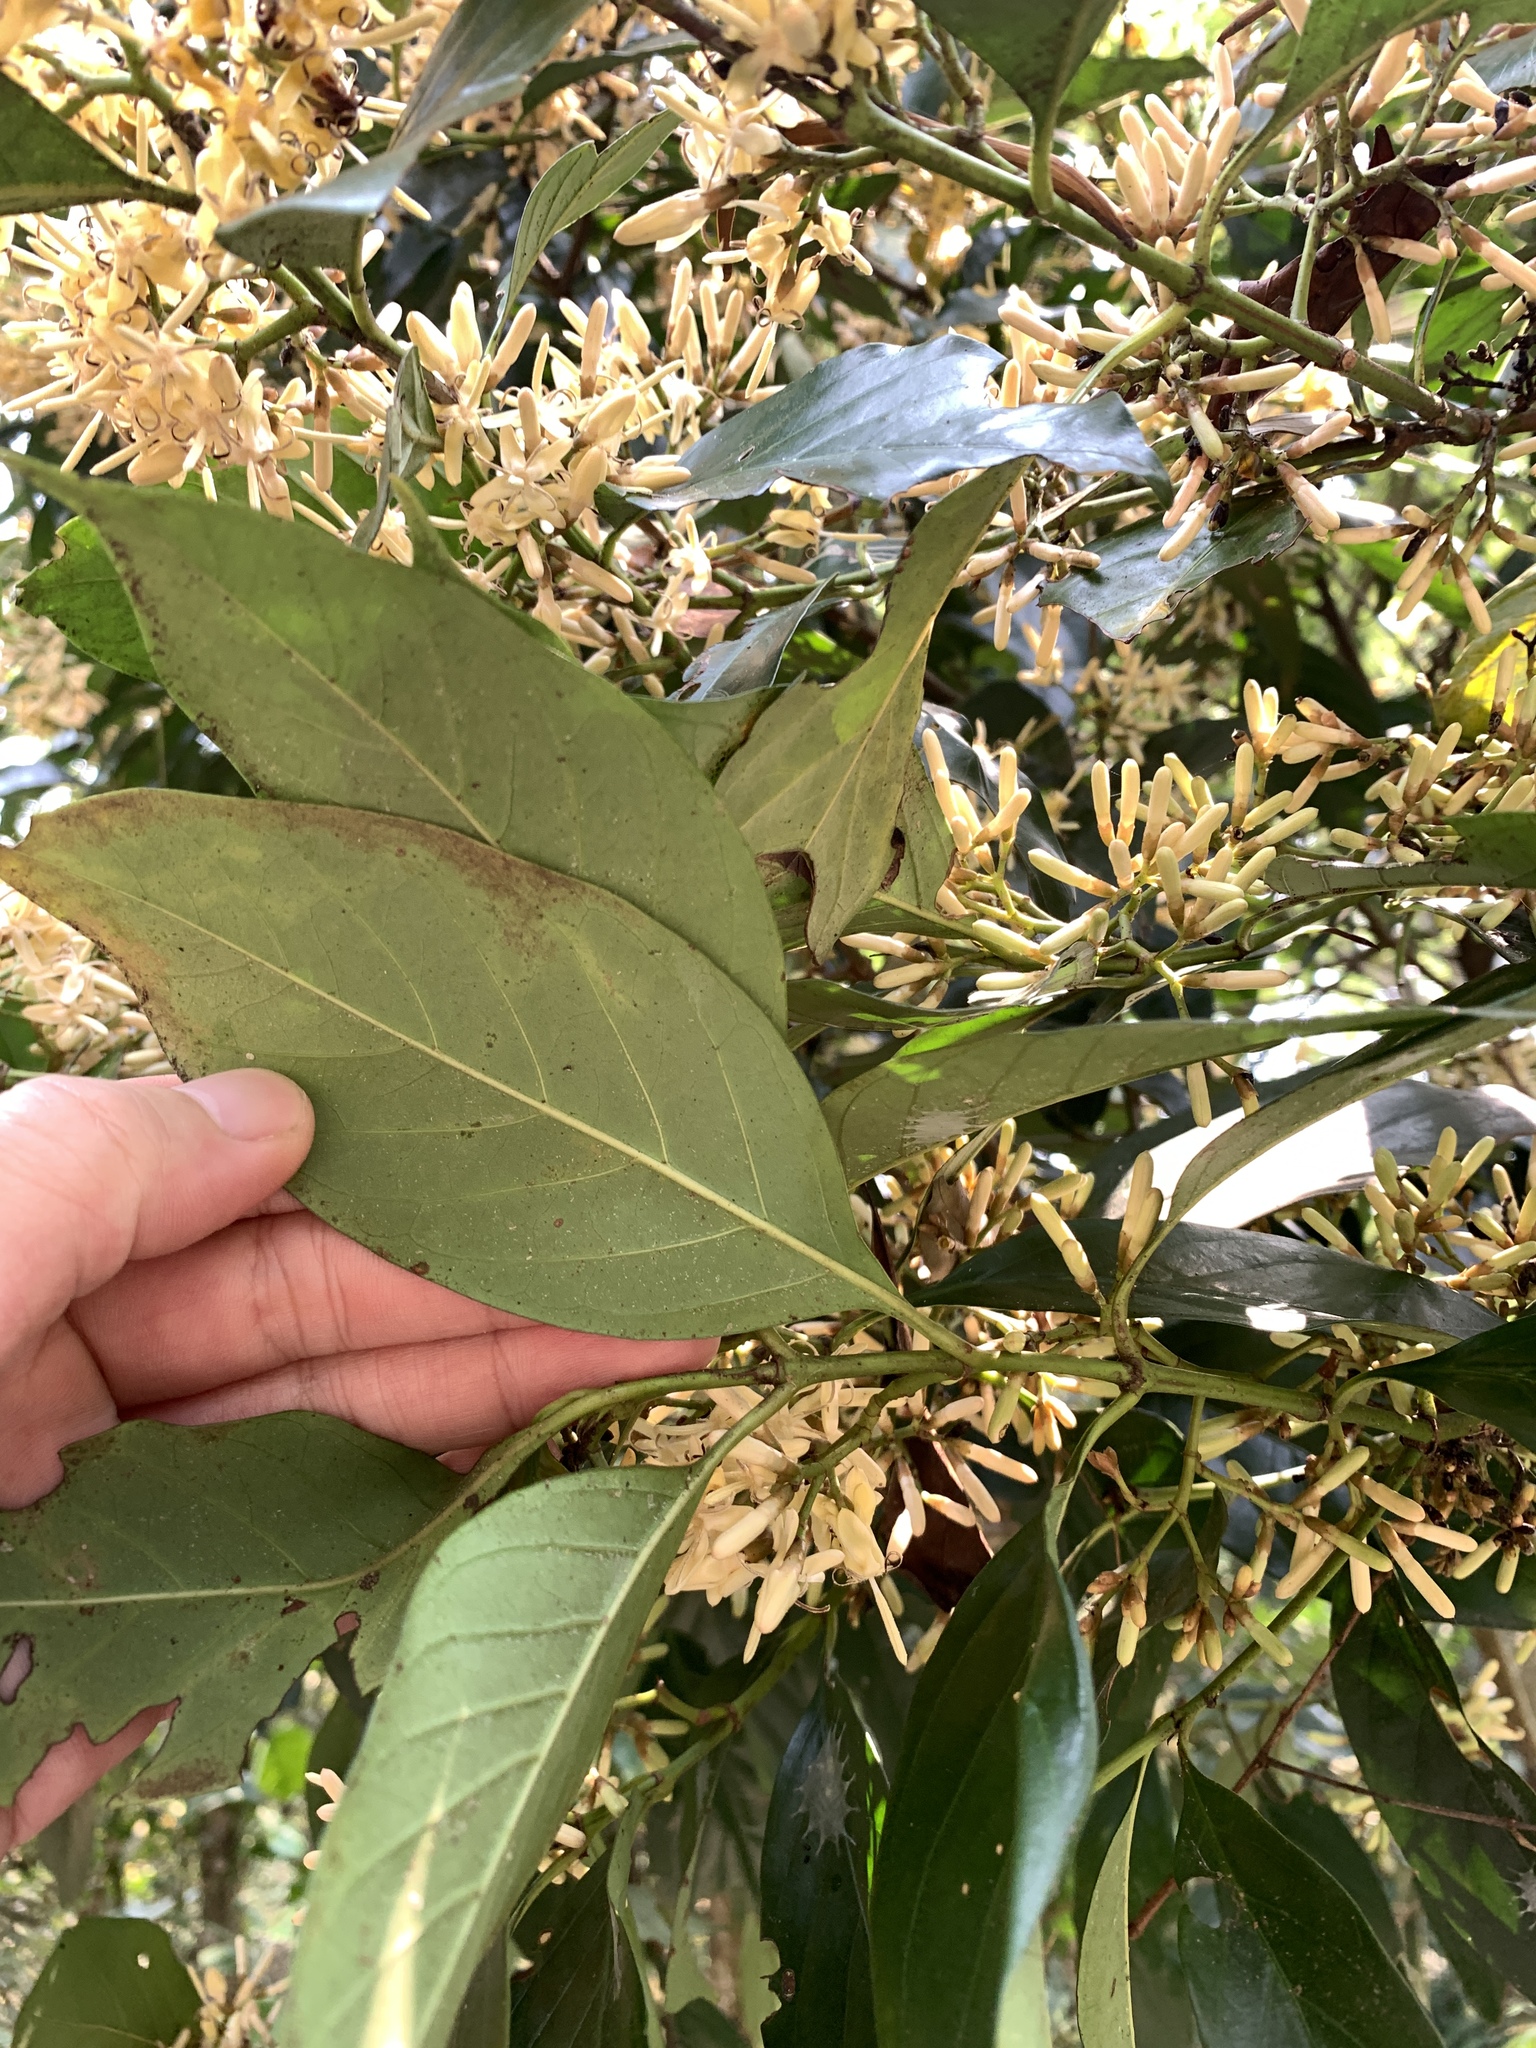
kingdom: Plantae
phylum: Tracheophyta
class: Magnoliopsida
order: Gentianales
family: Rubiaceae
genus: Aidia
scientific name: Aidia cochinchinensis
